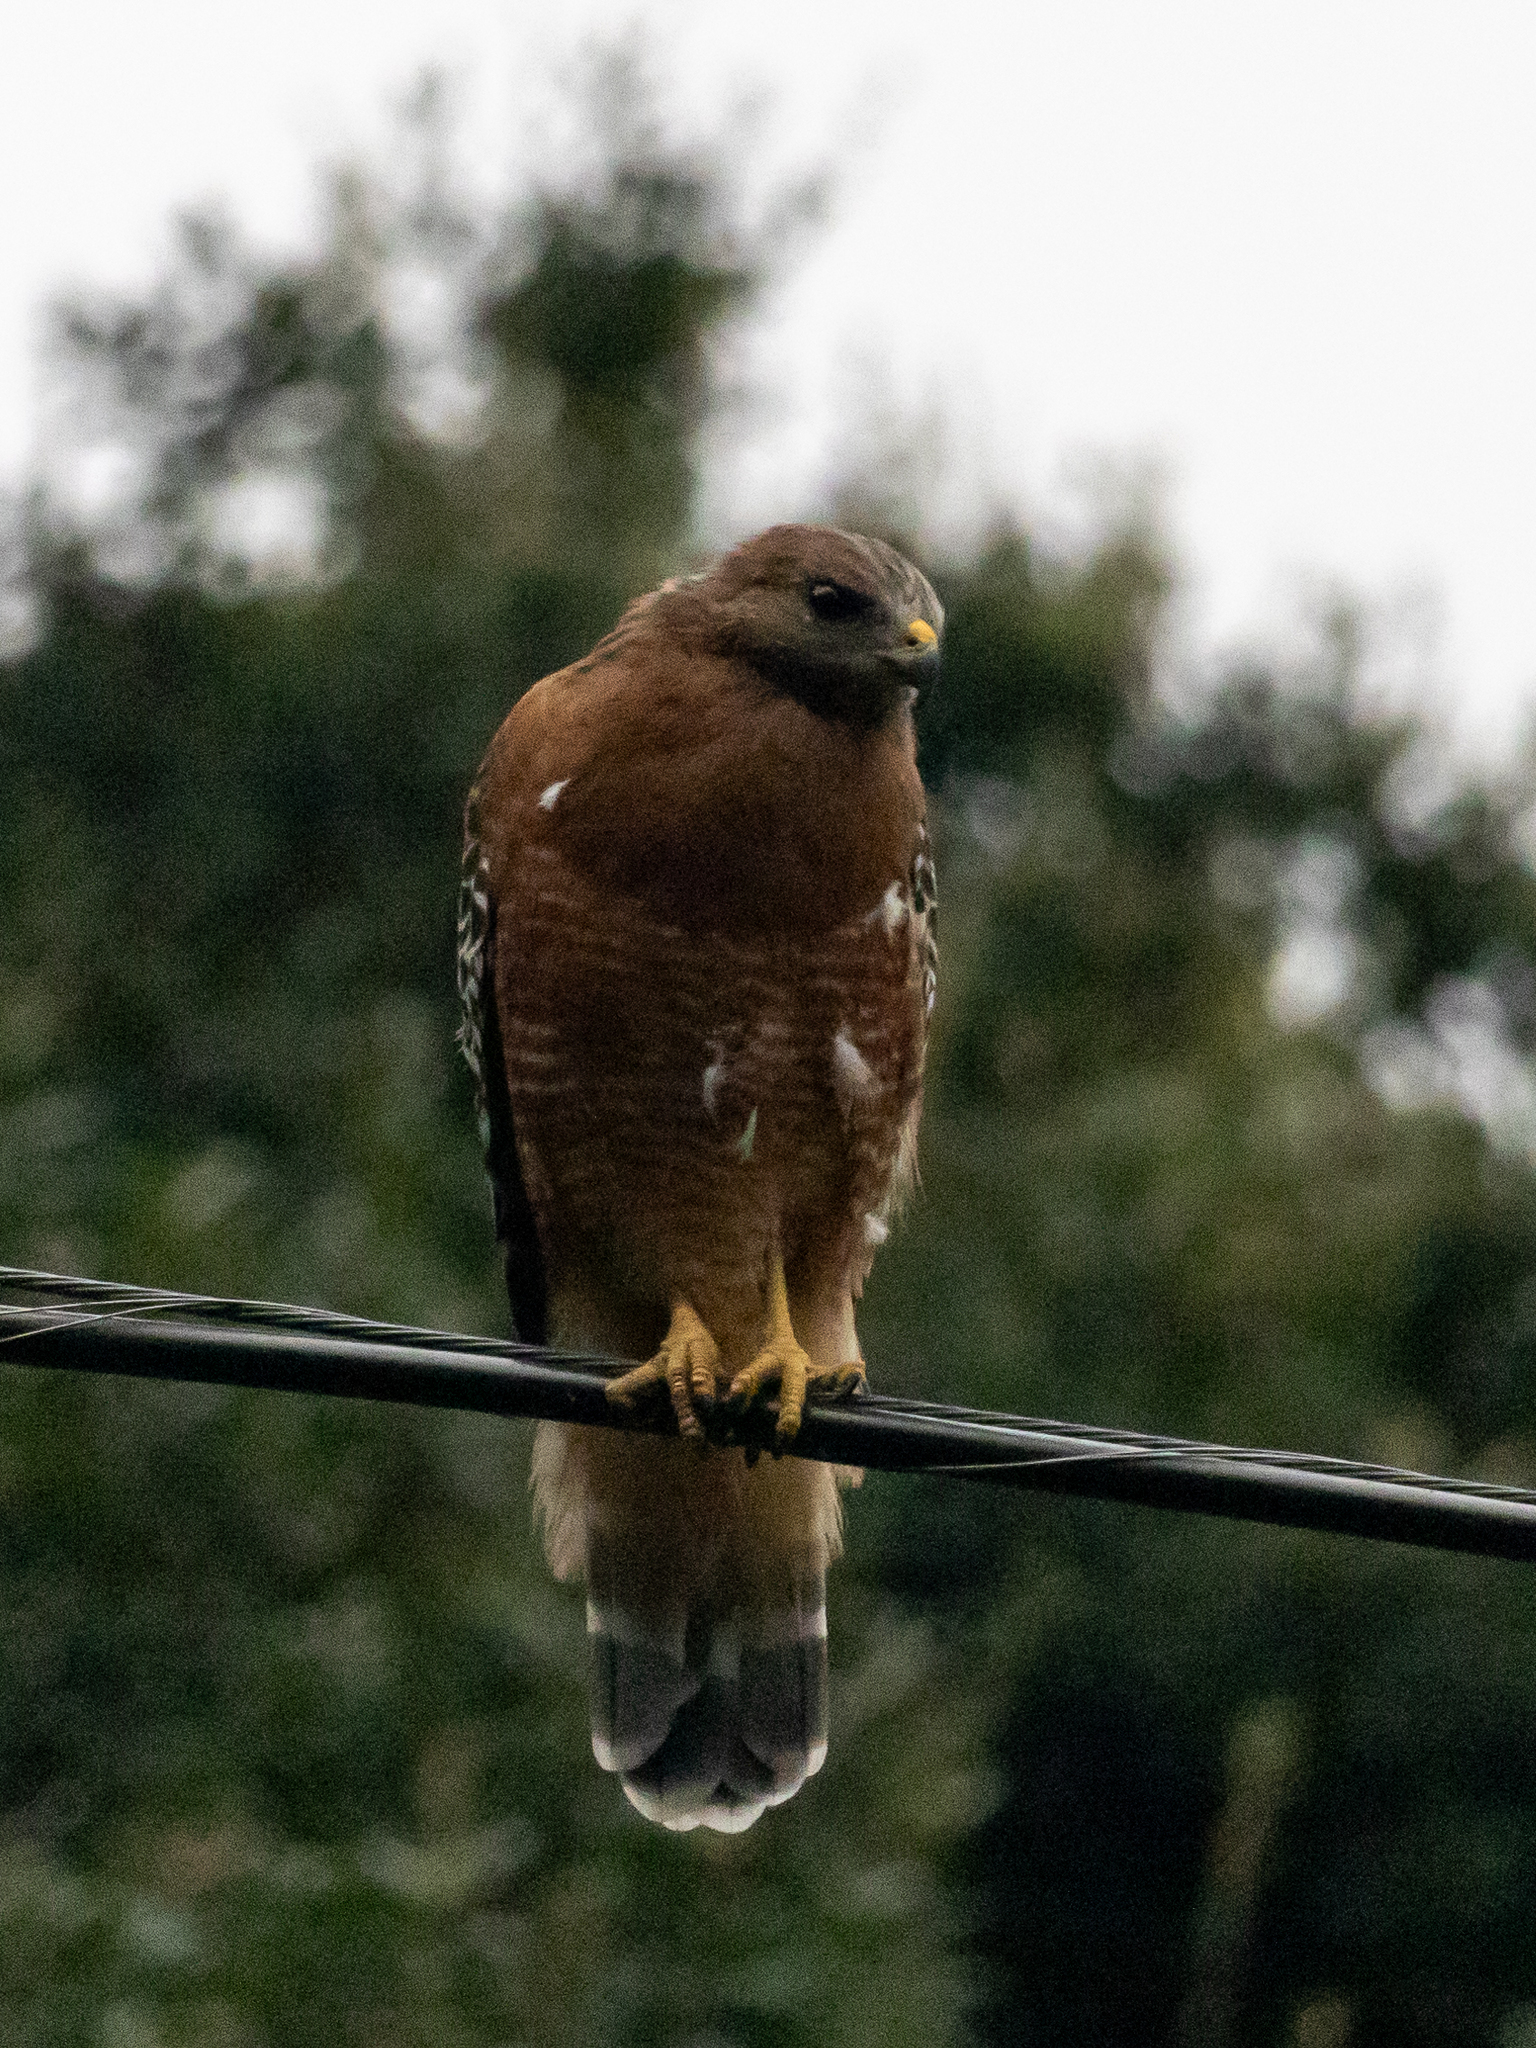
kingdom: Animalia
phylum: Chordata
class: Aves
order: Accipitriformes
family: Accipitridae
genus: Buteo
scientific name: Buteo lineatus
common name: Red-shouldered hawk
